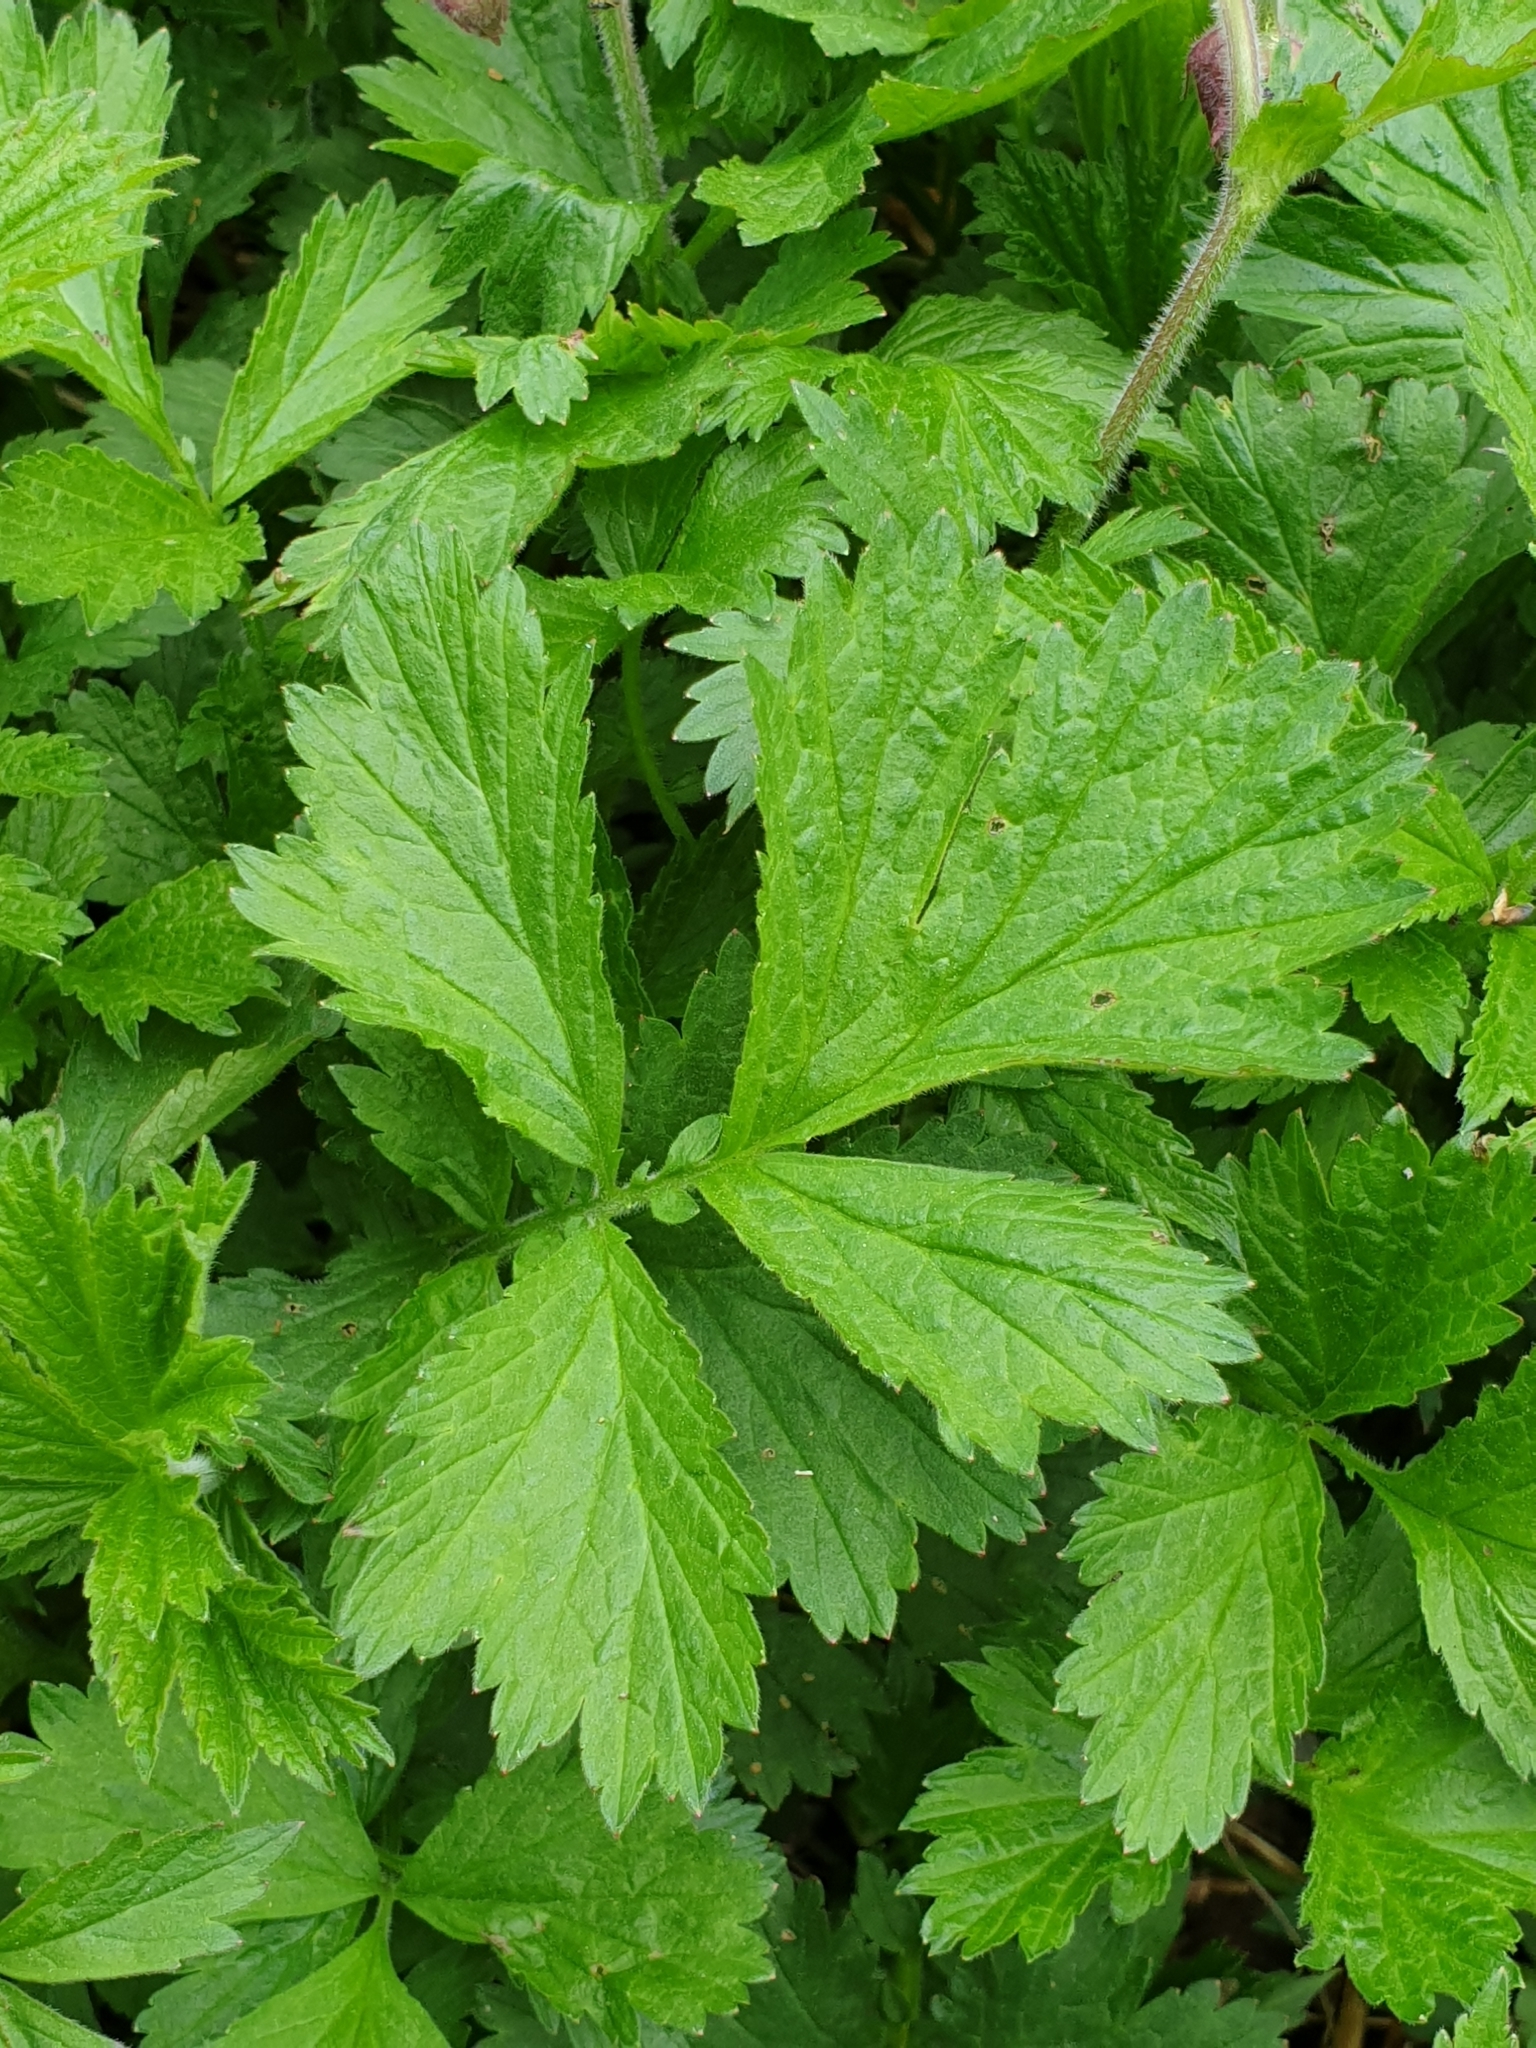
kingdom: Plantae
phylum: Tracheophyta
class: Magnoliopsida
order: Rosales
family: Rosaceae
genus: Geum
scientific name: Geum rivale
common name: Water avens
